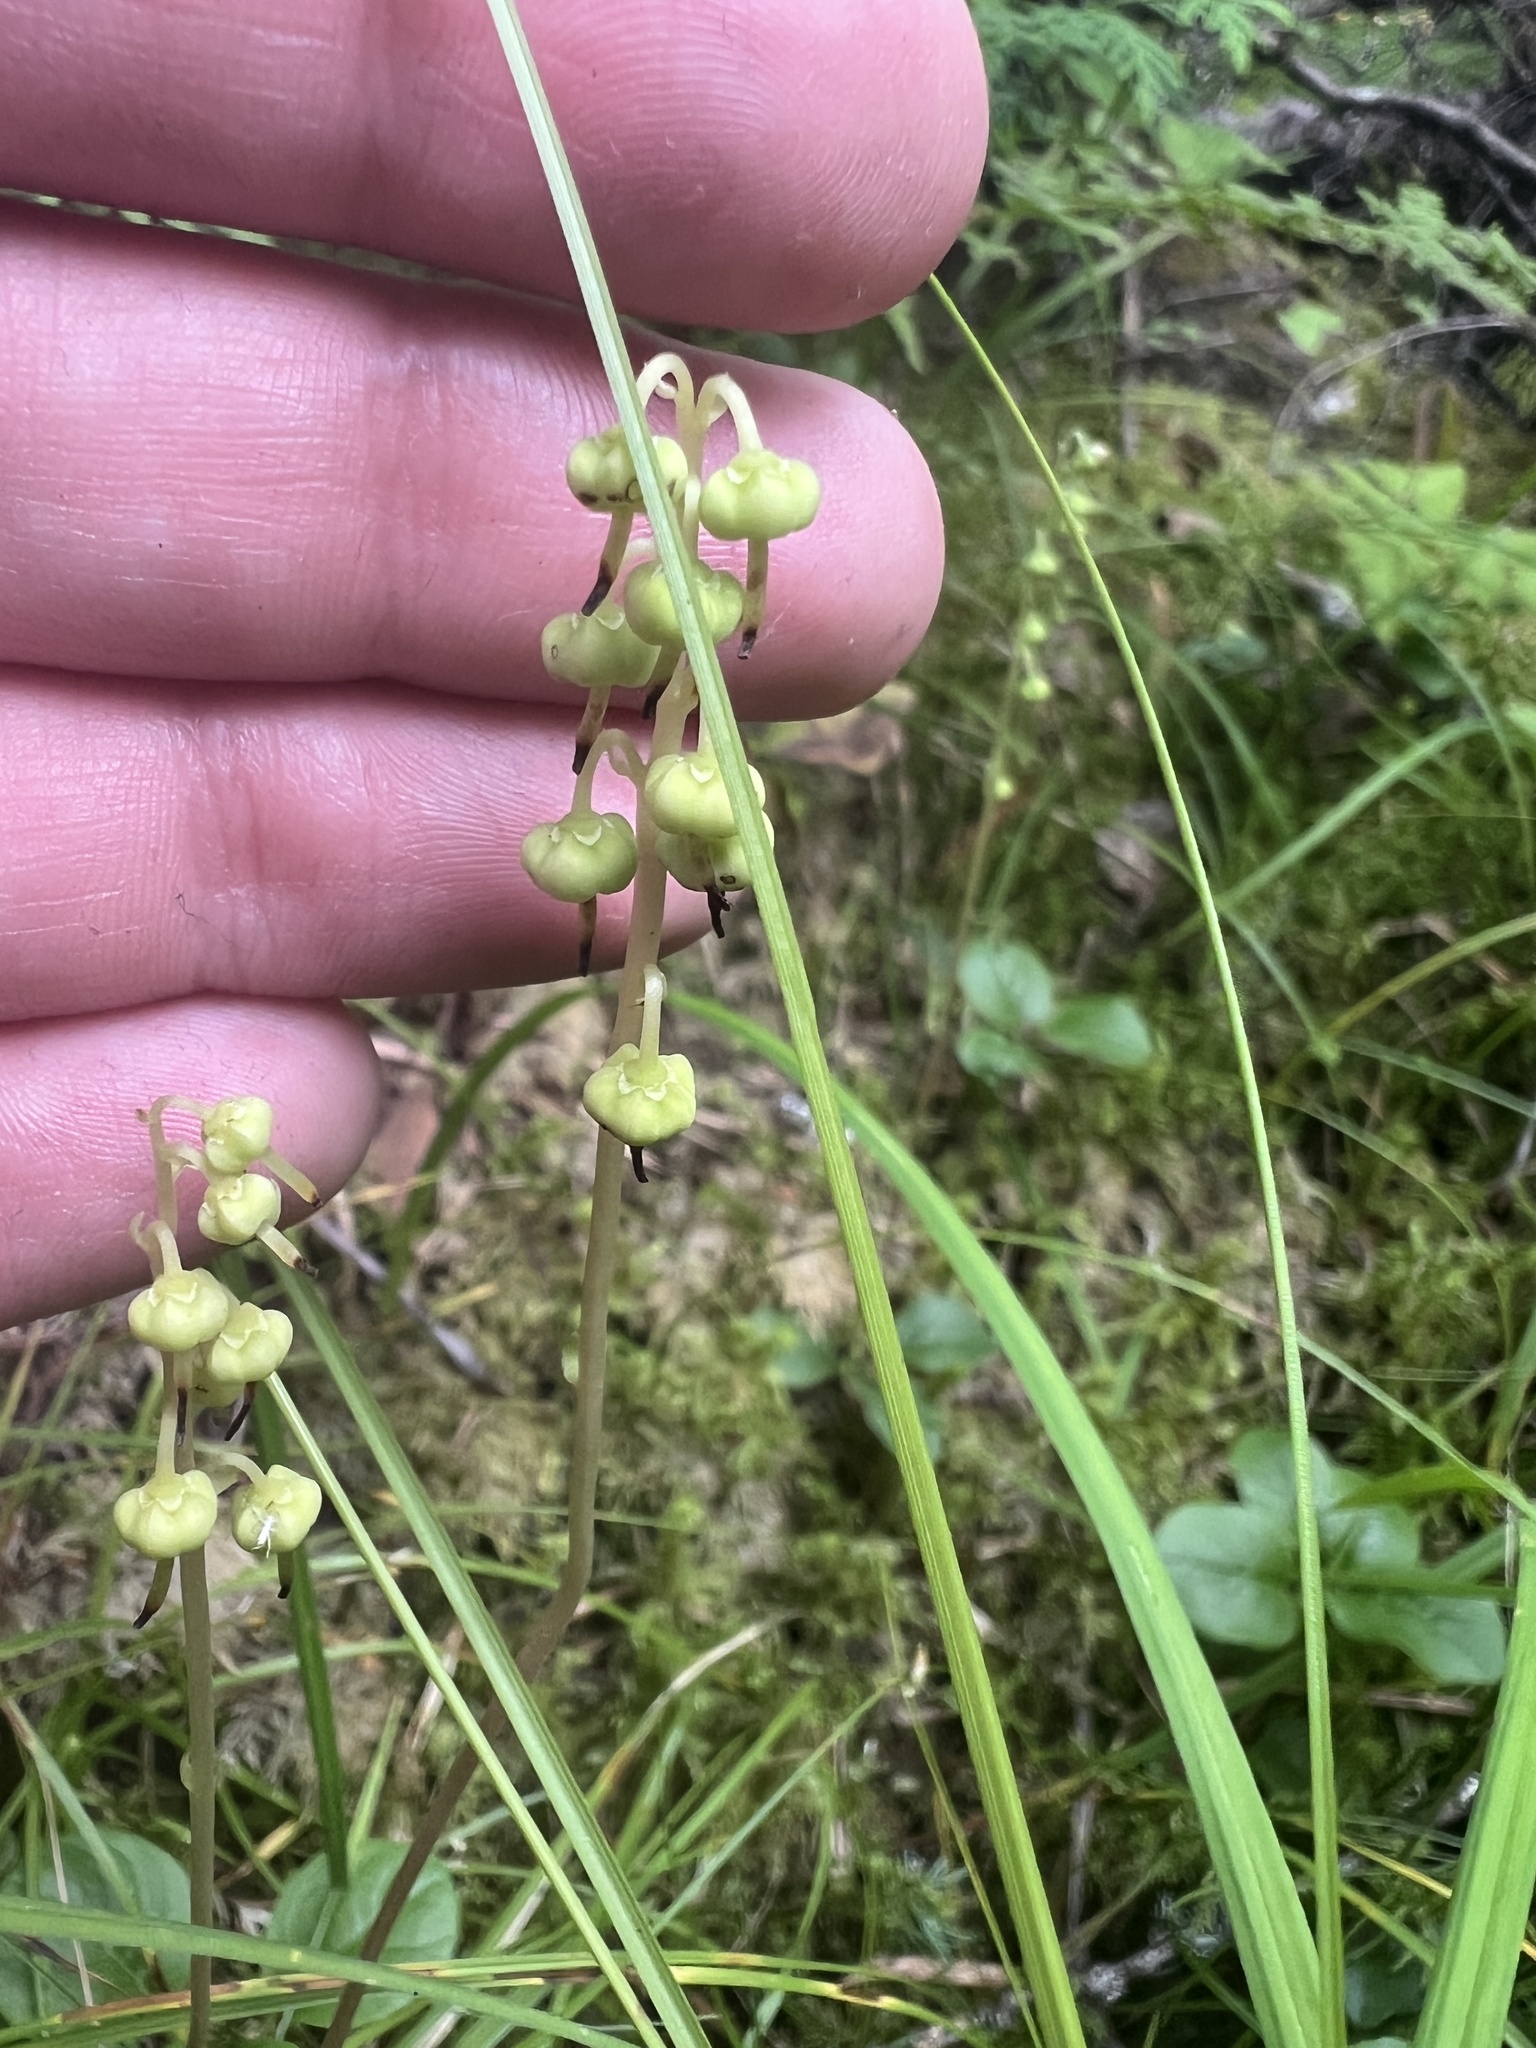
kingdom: Plantae
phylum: Tracheophyta
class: Magnoliopsida
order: Ericales
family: Ericaceae
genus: Orthilia
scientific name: Orthilia secunda
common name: One-sided orthilia
